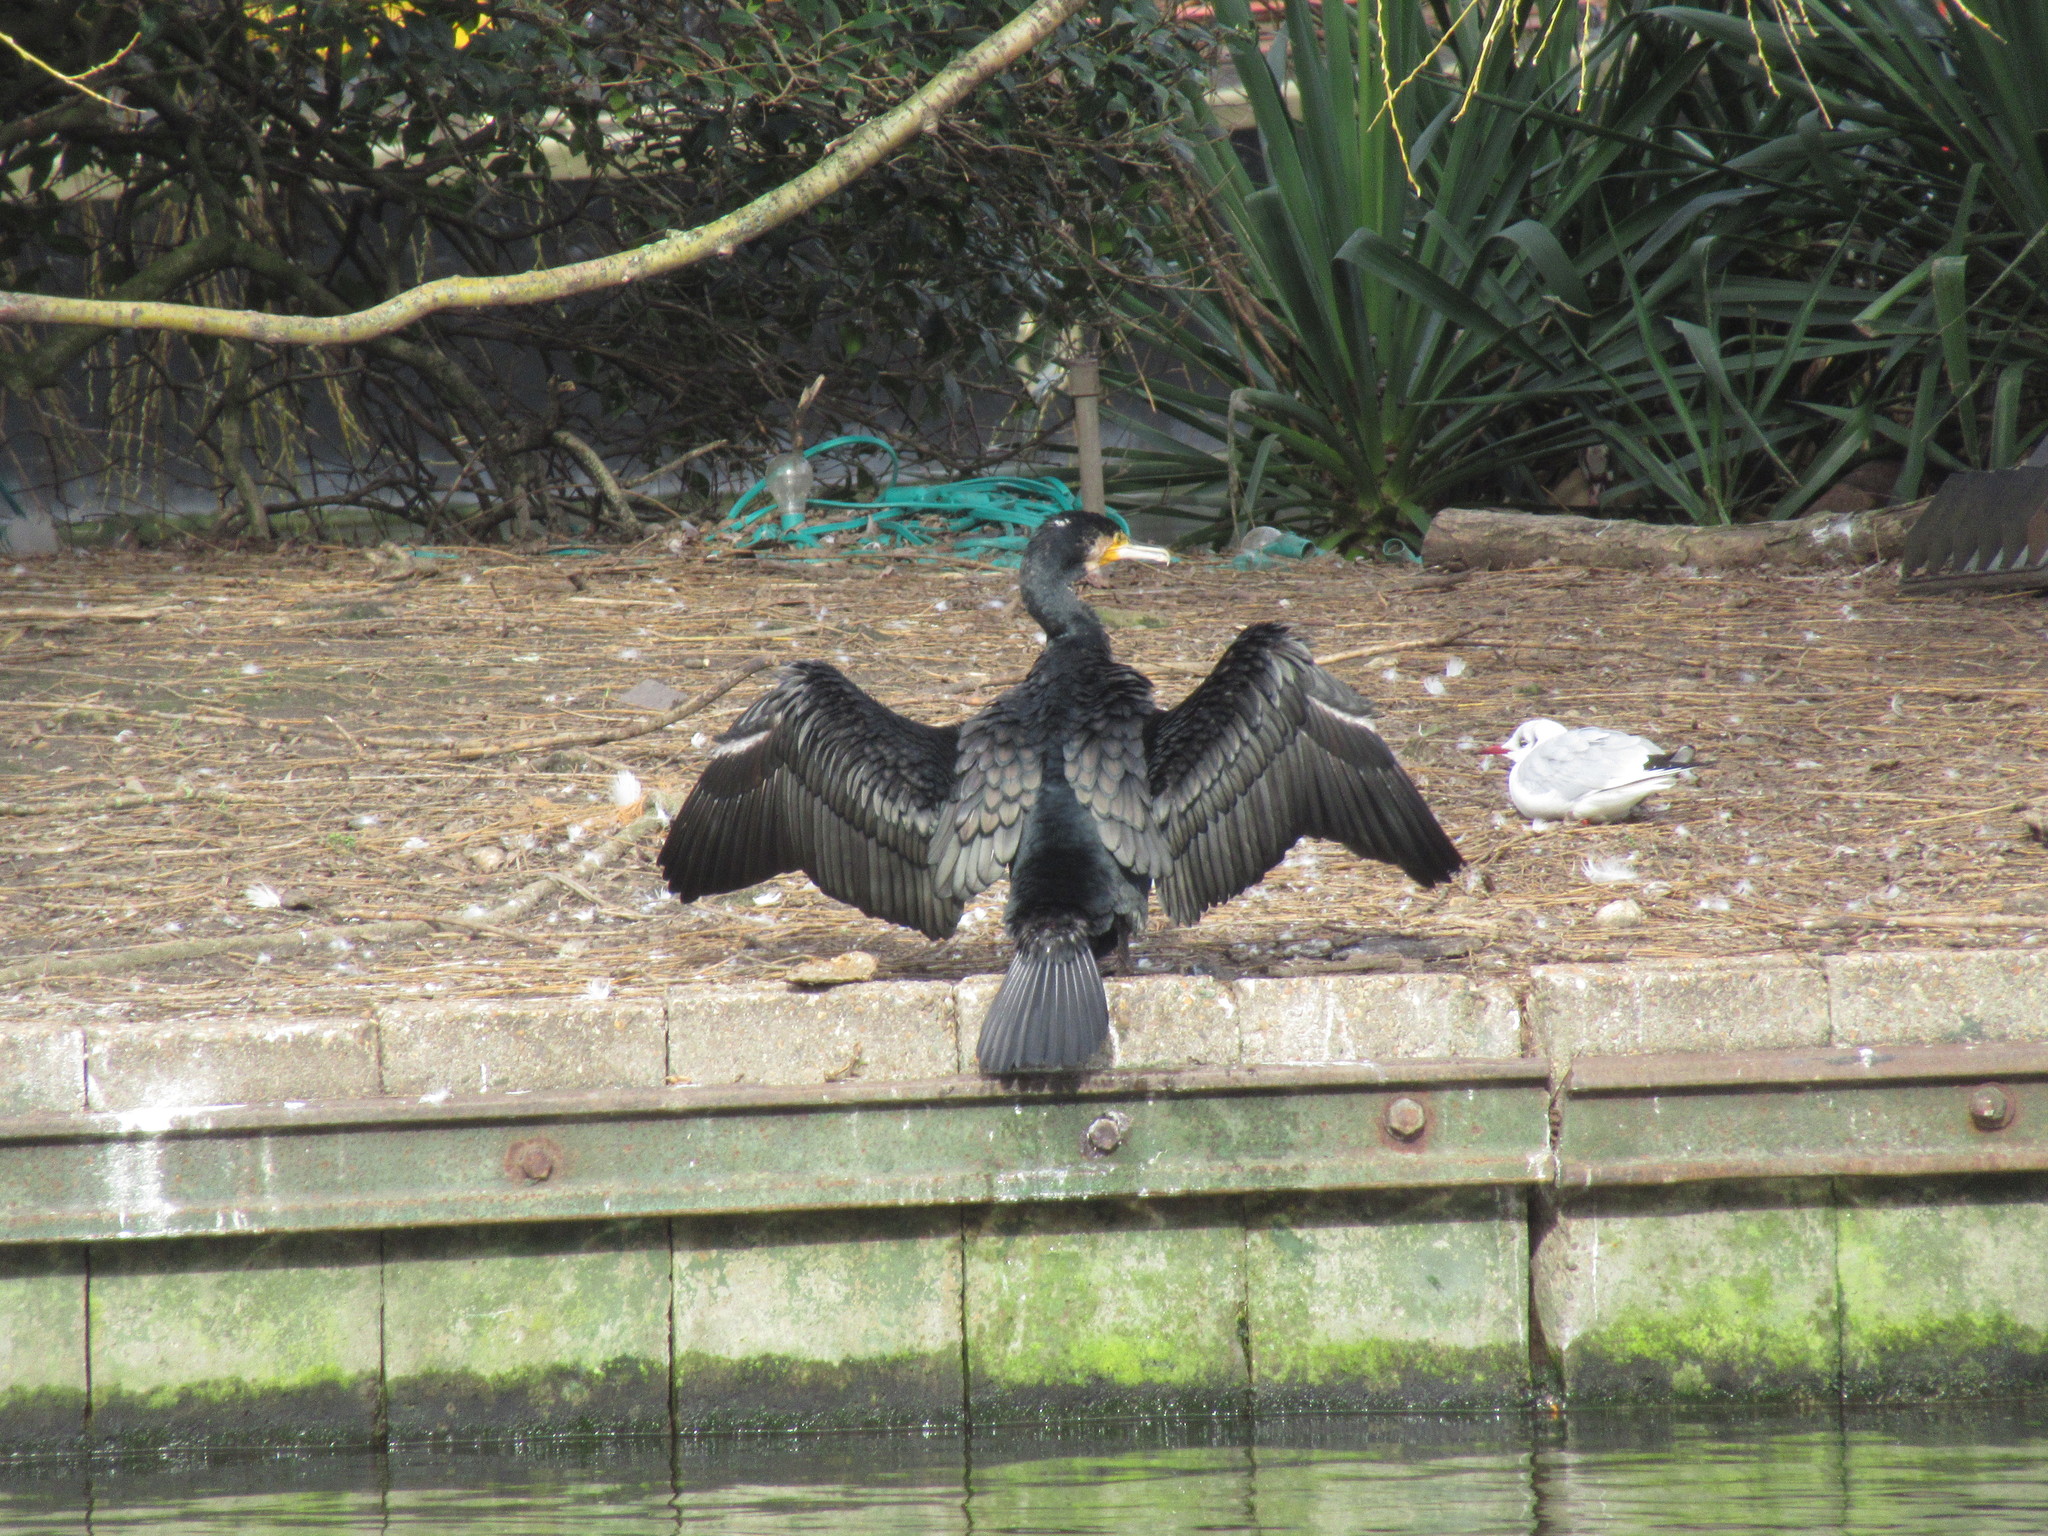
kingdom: Animalia
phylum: Chordata
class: Aves
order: Suliformes
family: Phalacrocoracidae
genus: Phalacrocorax
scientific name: Phalacrocorax carbo
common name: Great cormorant
